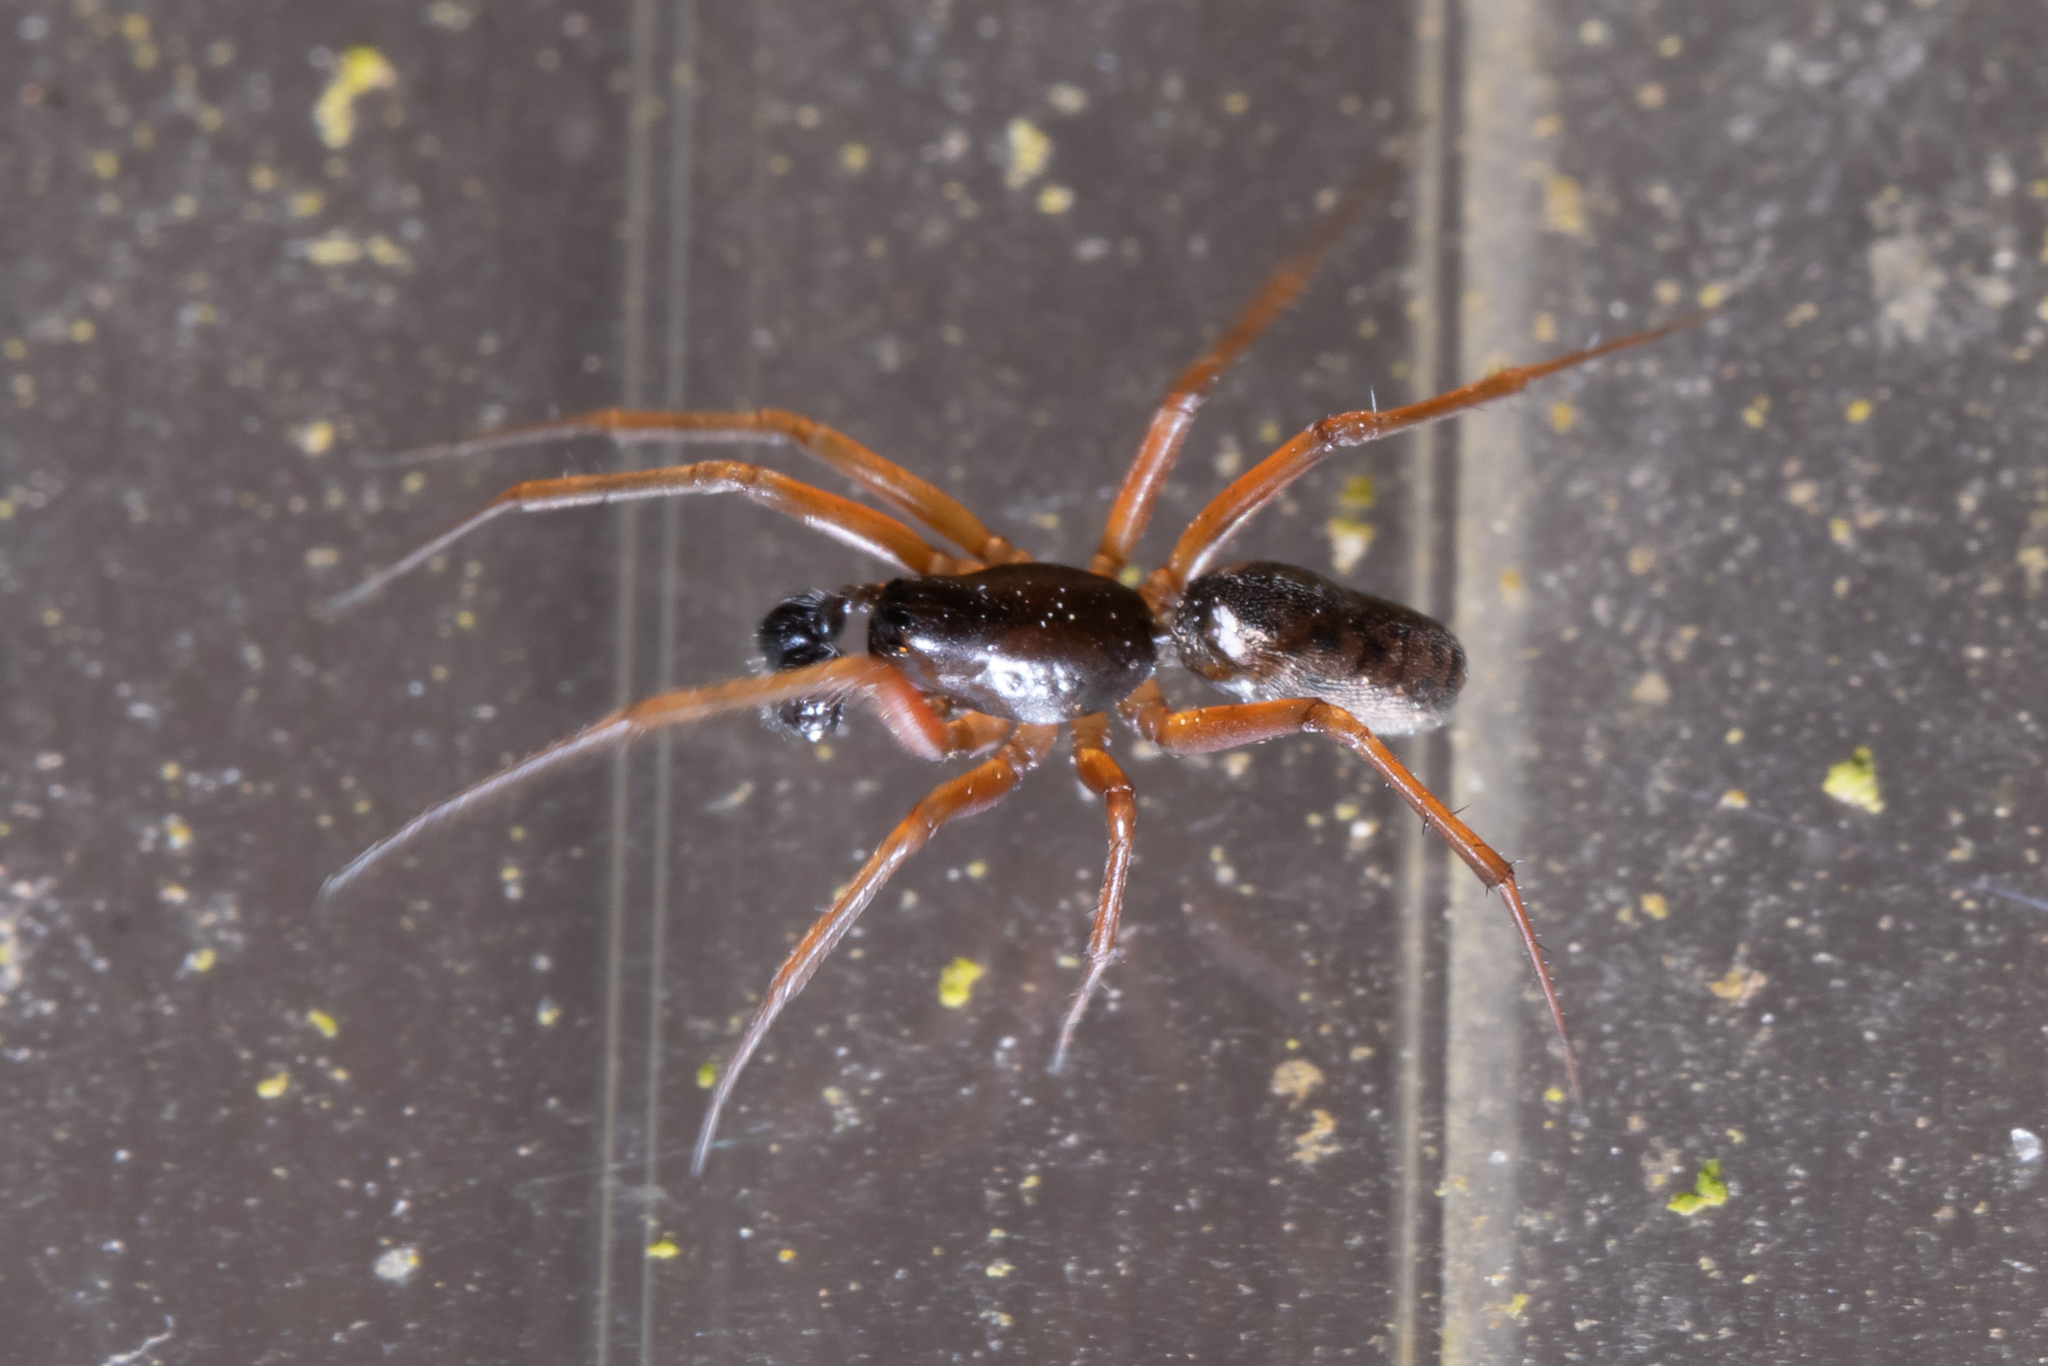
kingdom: Animalia
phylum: Arthropoda
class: Arachnida
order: Araneae
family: Linyphiidae
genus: Neriene
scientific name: Neriene clathrata
